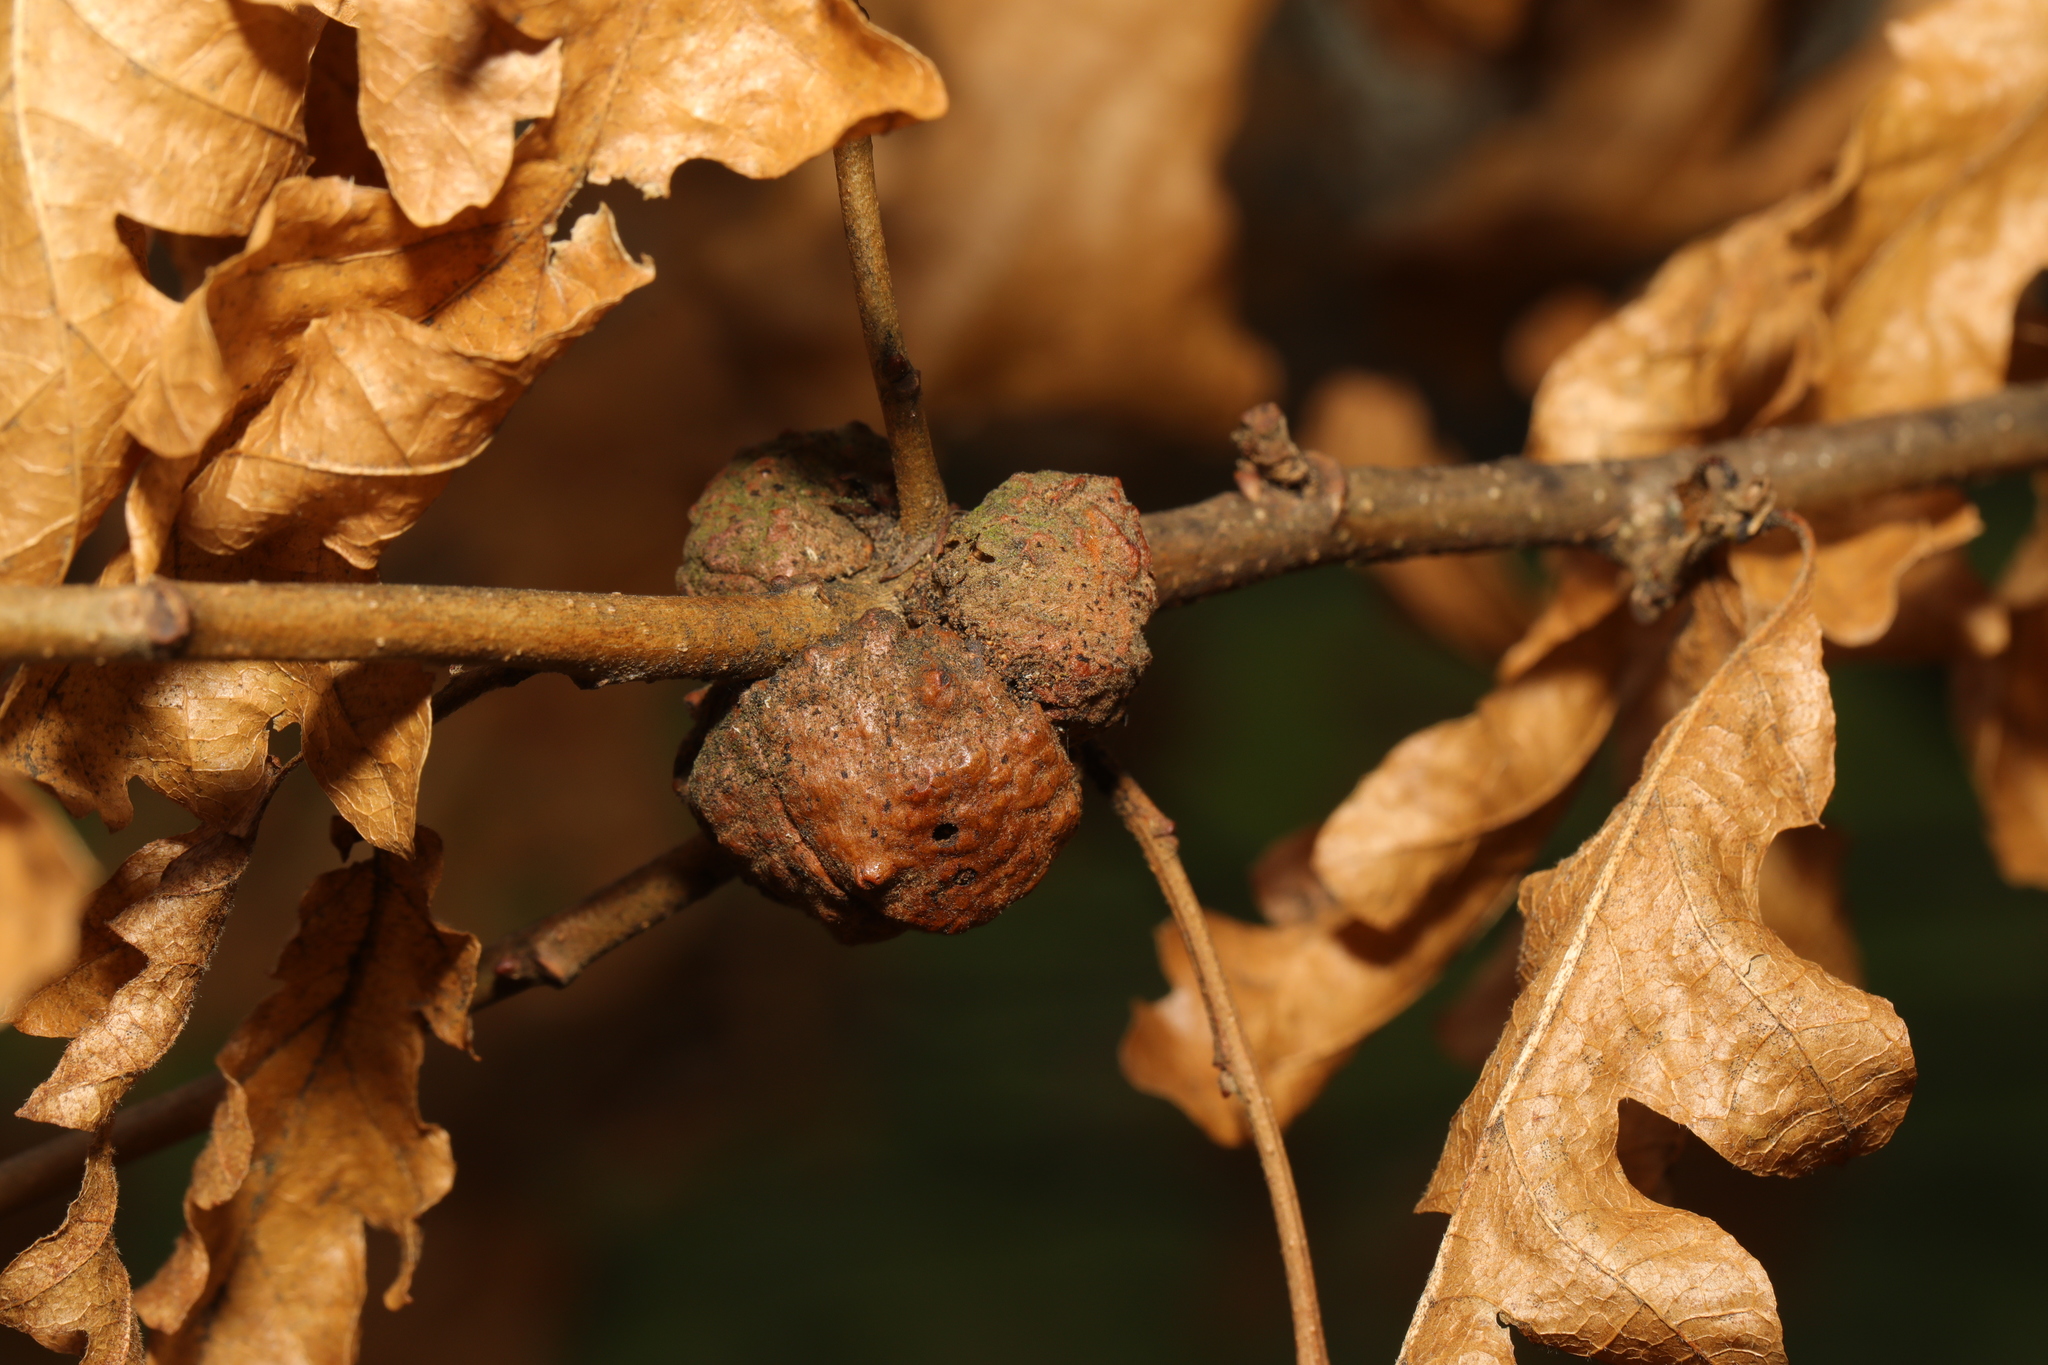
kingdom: Animalia
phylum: Arthropoda
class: Insecta
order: Hymenoptera
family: Cynipidae
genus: Aphelonyx
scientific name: Aphelonyx cerricola
